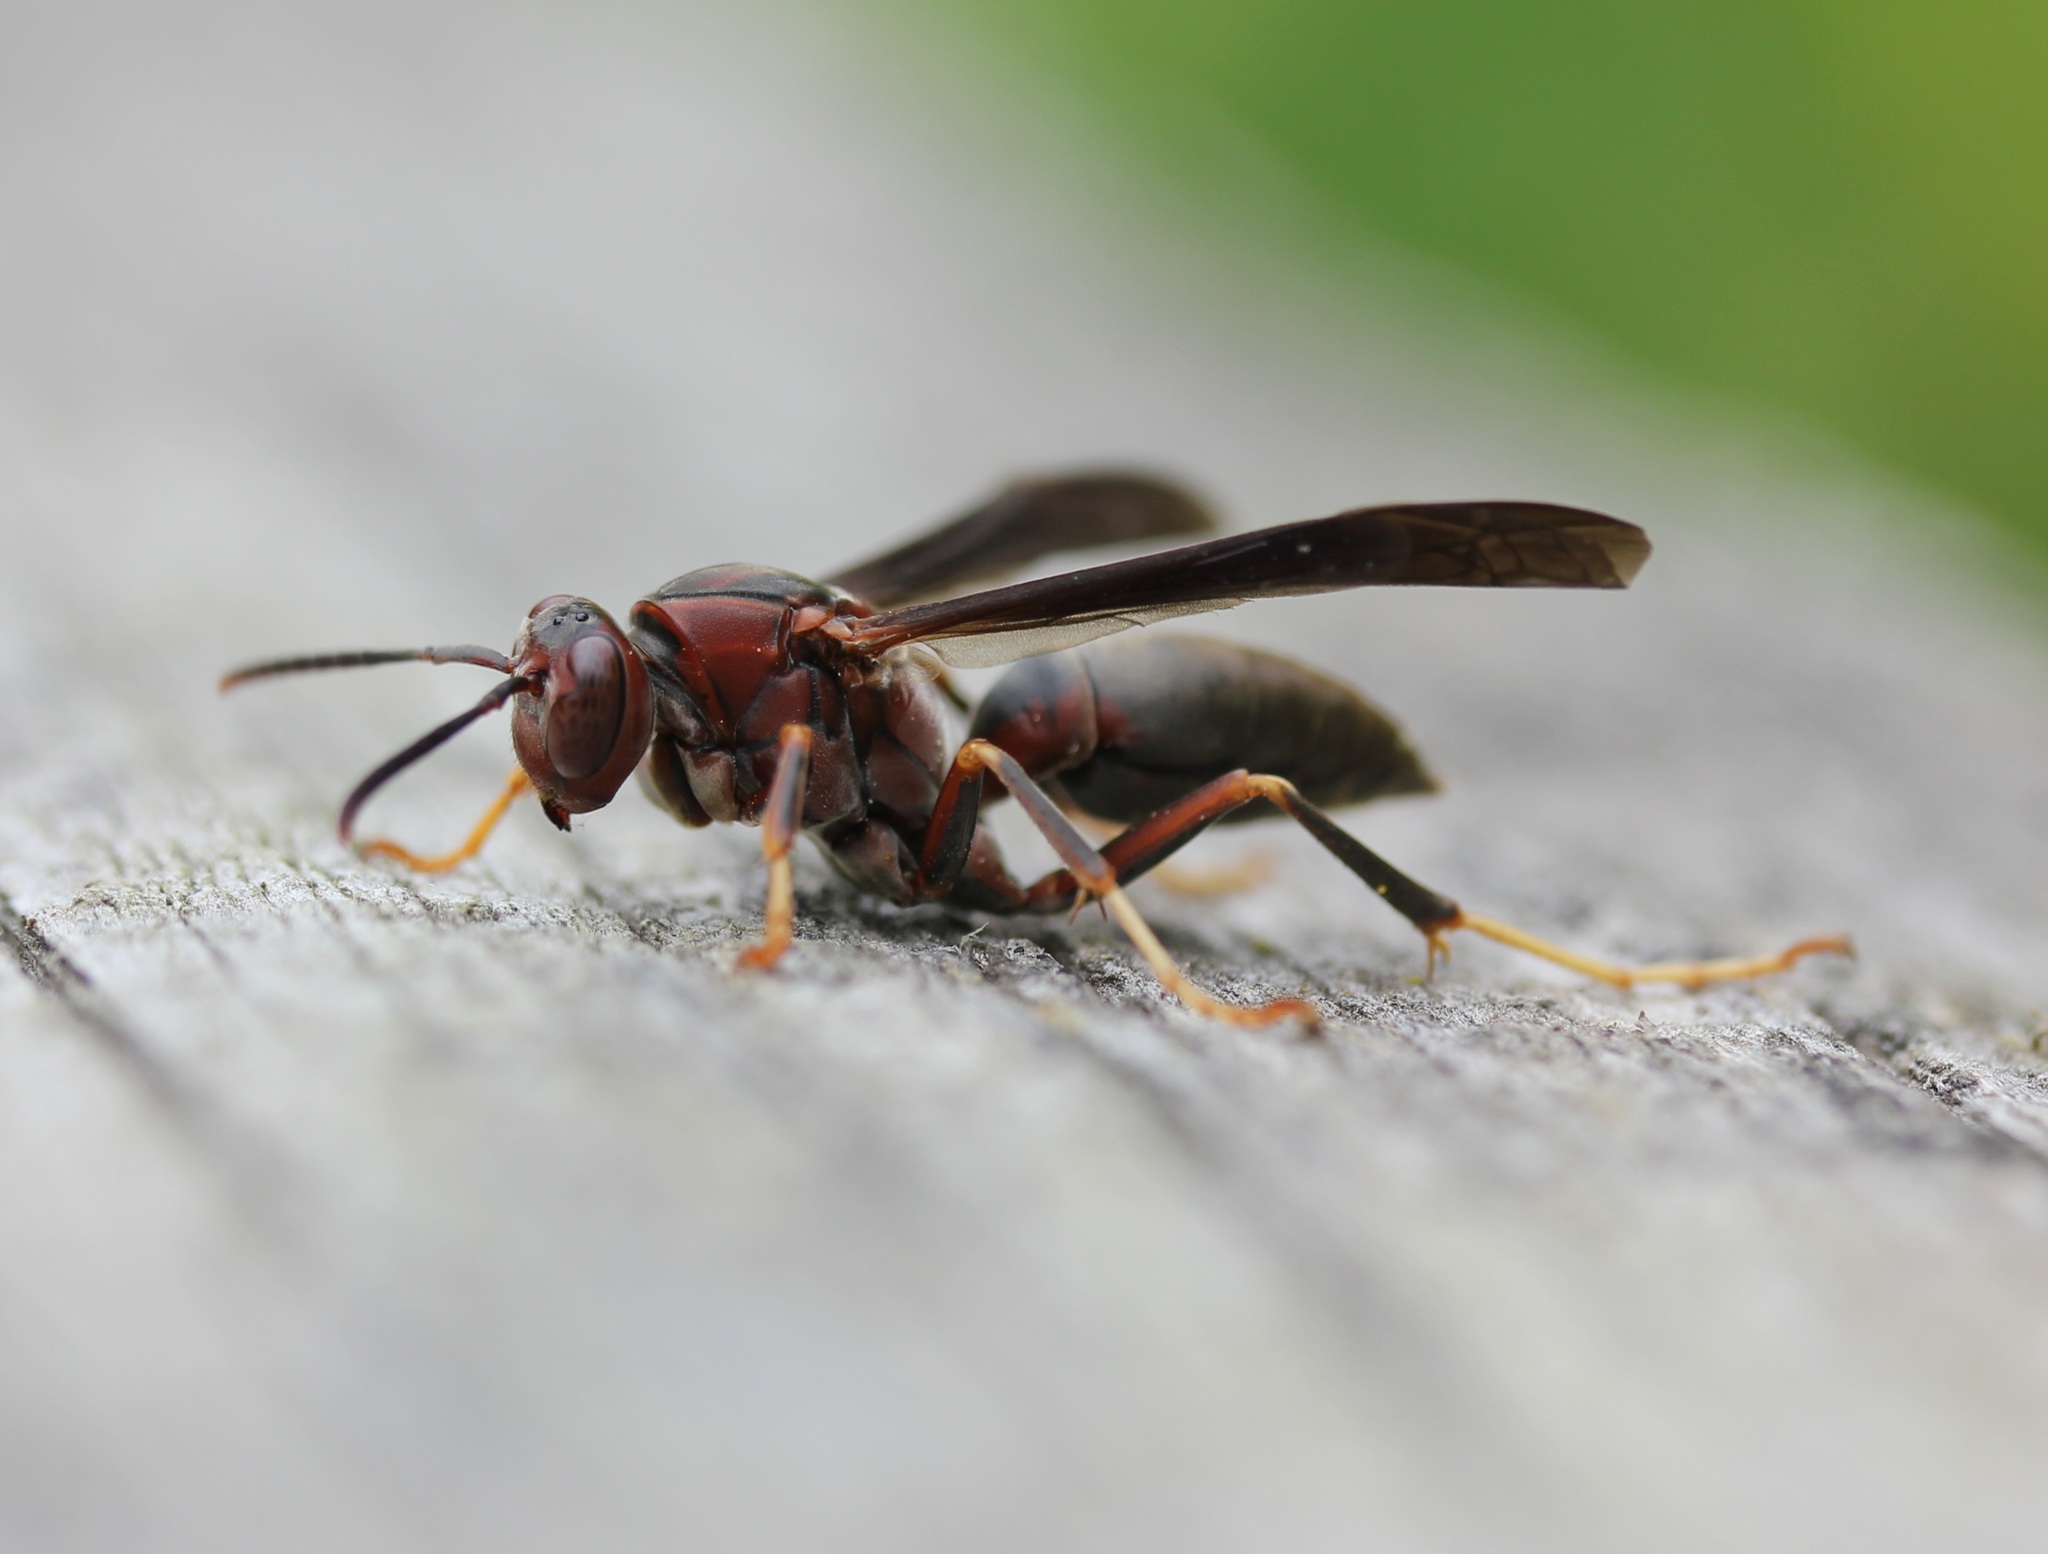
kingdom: Animalia
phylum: Arthropoda
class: Insecta
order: Hymenoptera
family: Eumenidae
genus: Polistes
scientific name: Polistes metricus
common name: Metric paper wasp
